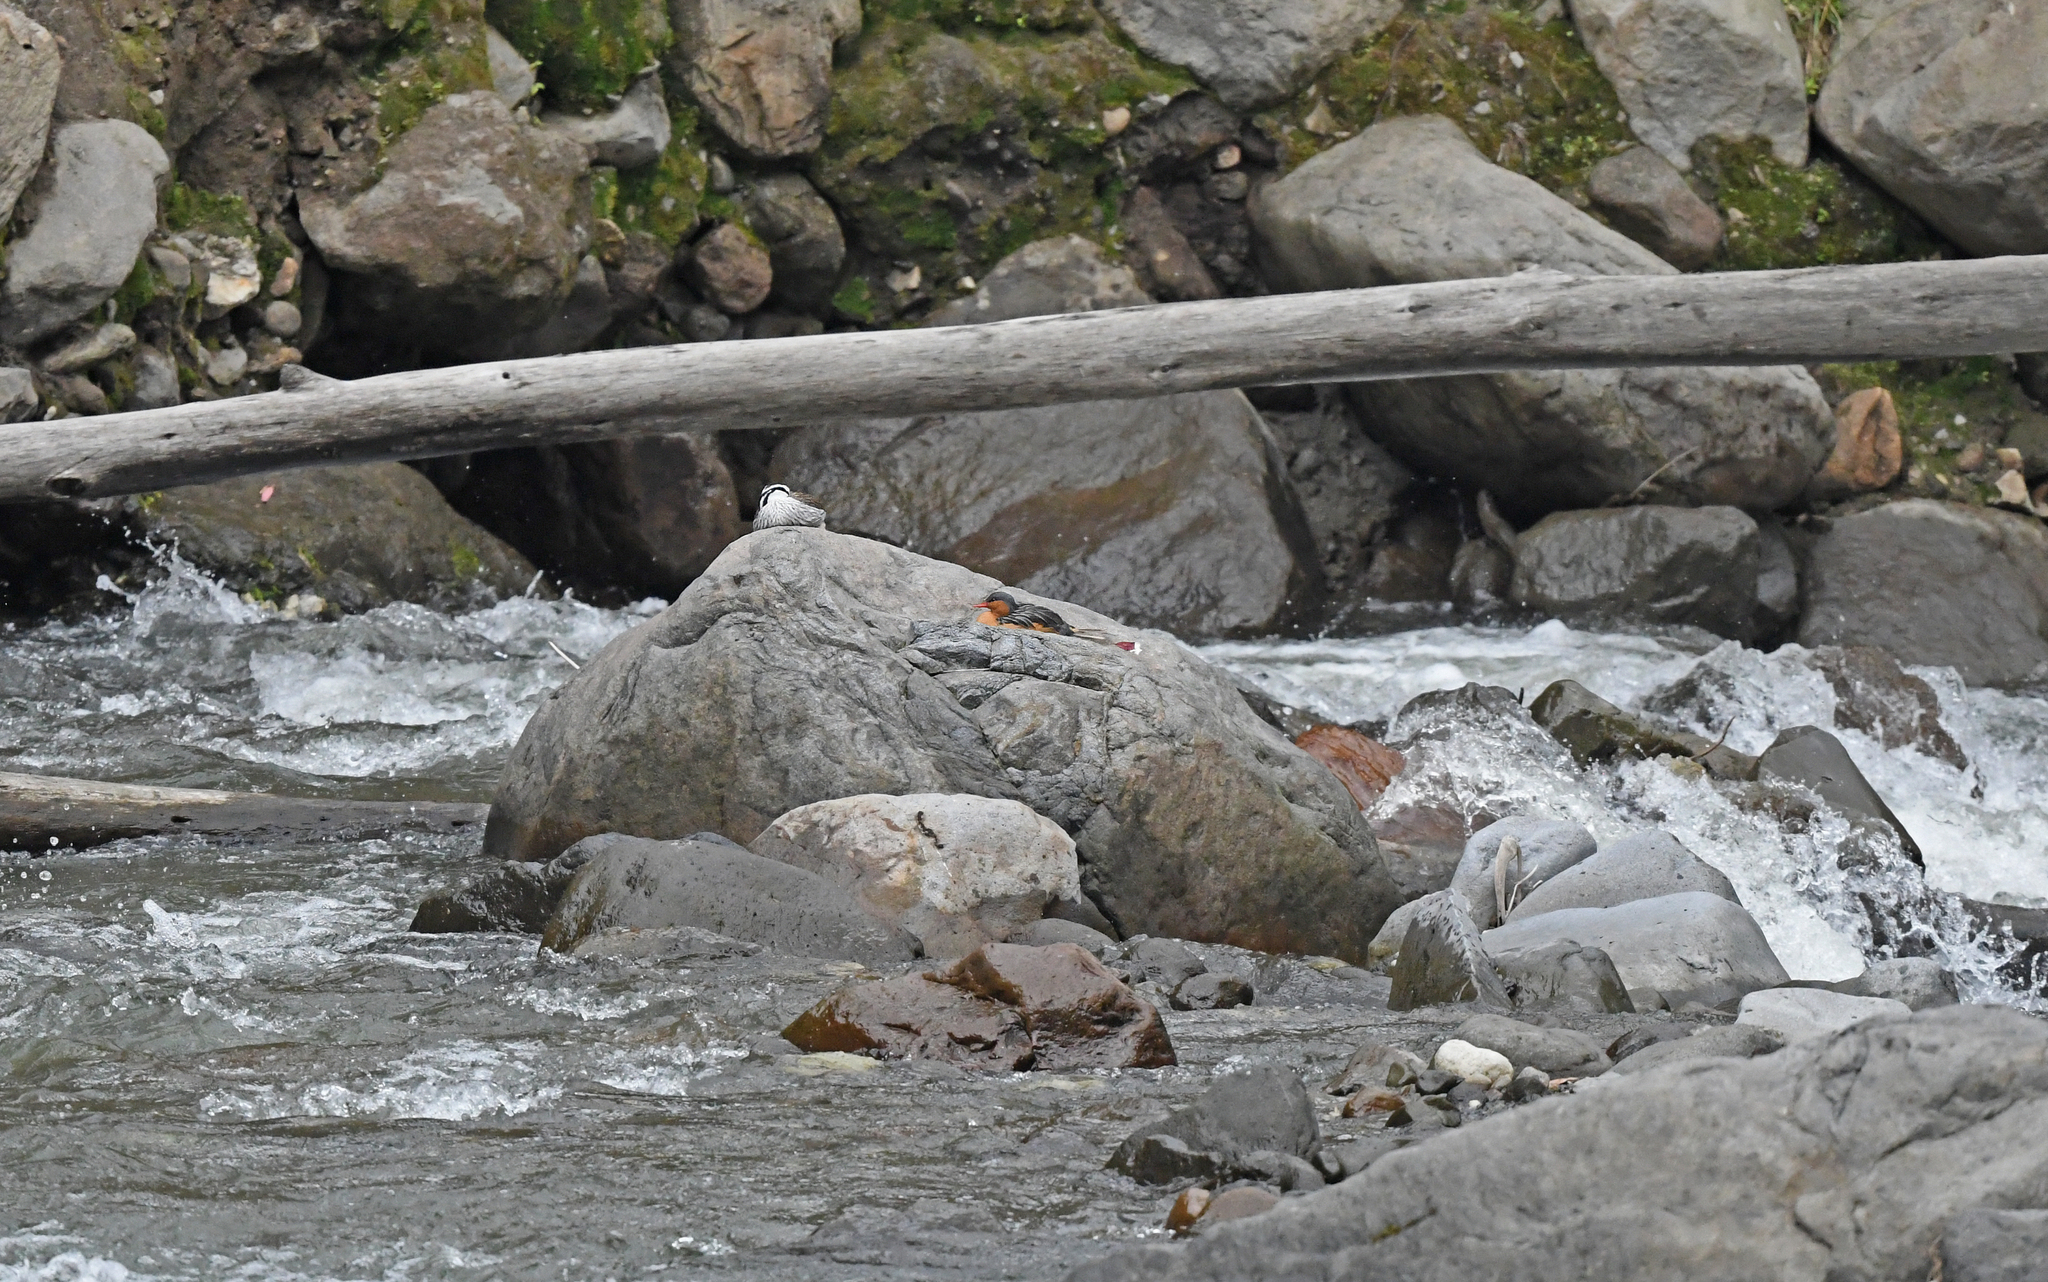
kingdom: Animalia
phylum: Chordata
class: Aves
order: Anseriformes
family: Anatidae
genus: Merganetta
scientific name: Merganetta armata
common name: Torrent duck
